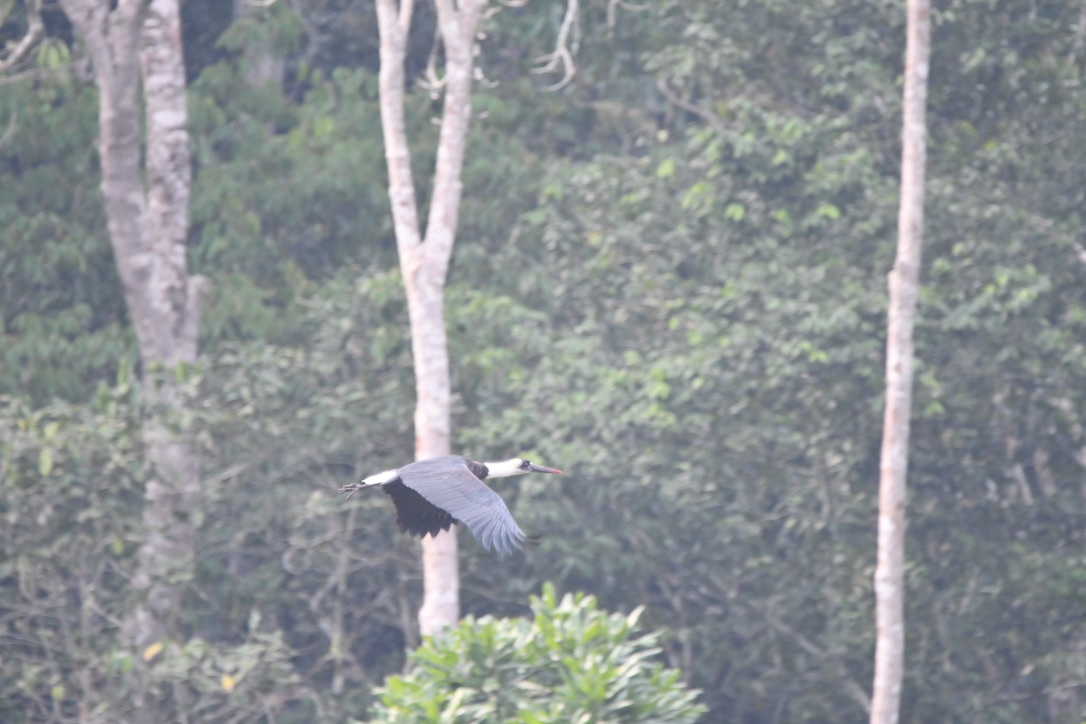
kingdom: Animalia
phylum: Chordata
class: Aves
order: Ciconiiformes
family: Ciconiidae
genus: Ciconia
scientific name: Ciconia microscelis
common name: African woollyneck
